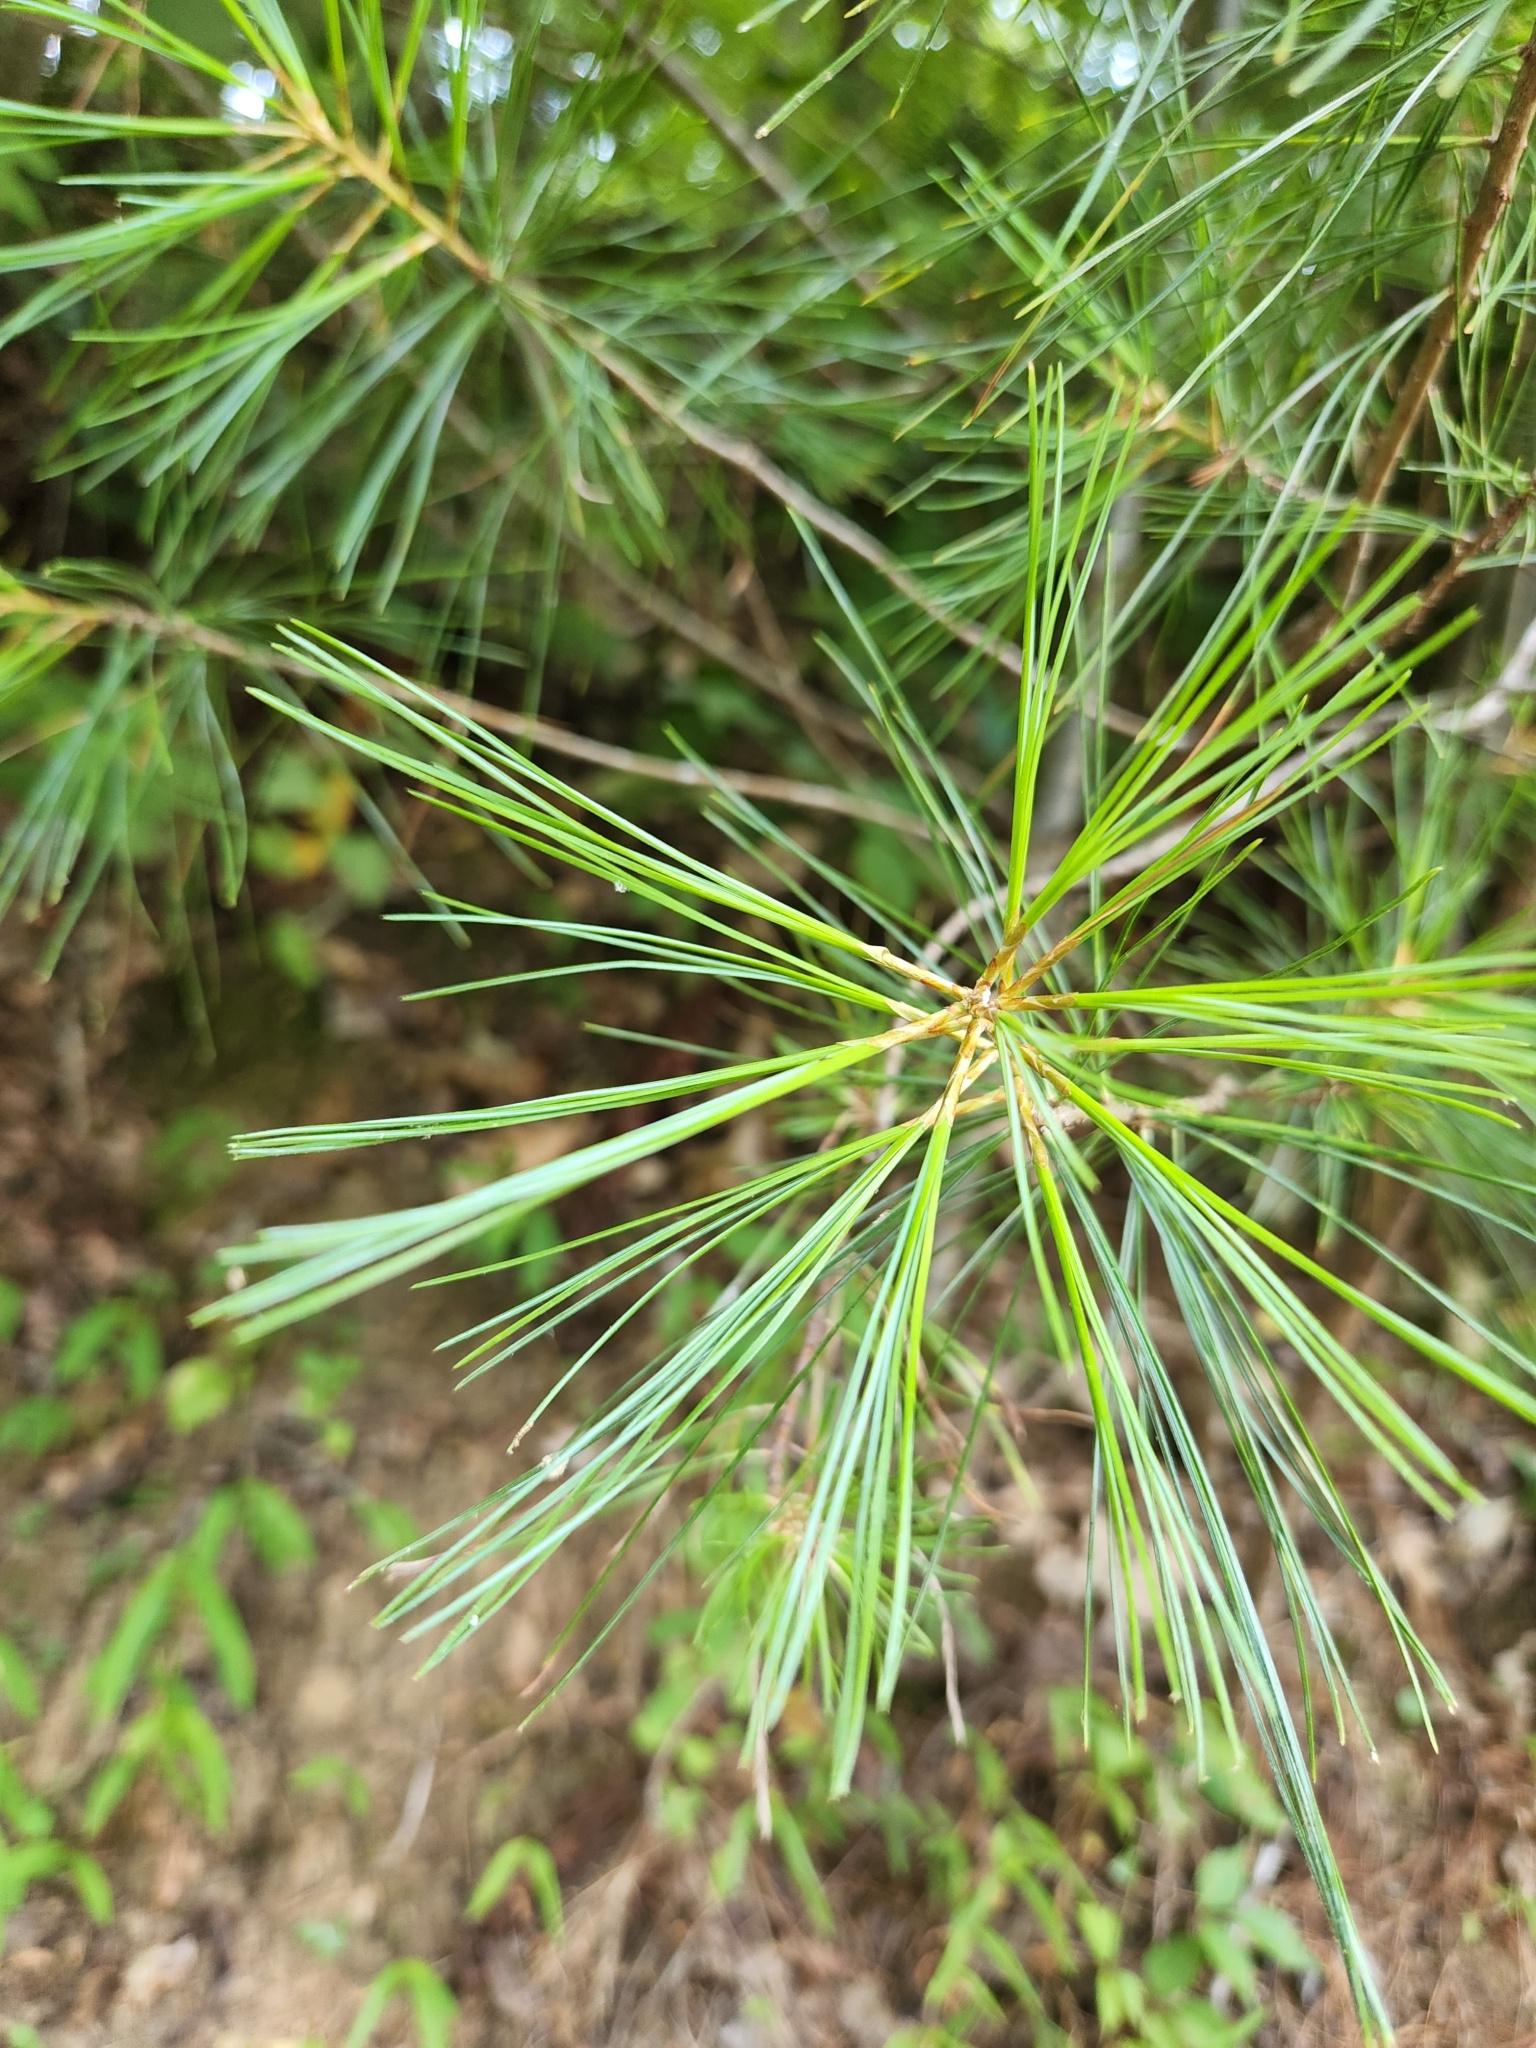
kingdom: Plantae
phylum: Tracheophyta
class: Pinopsida
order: Pinales
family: Pinaceae
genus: Pinus
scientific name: Pinus strobus
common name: Weymouth pine
